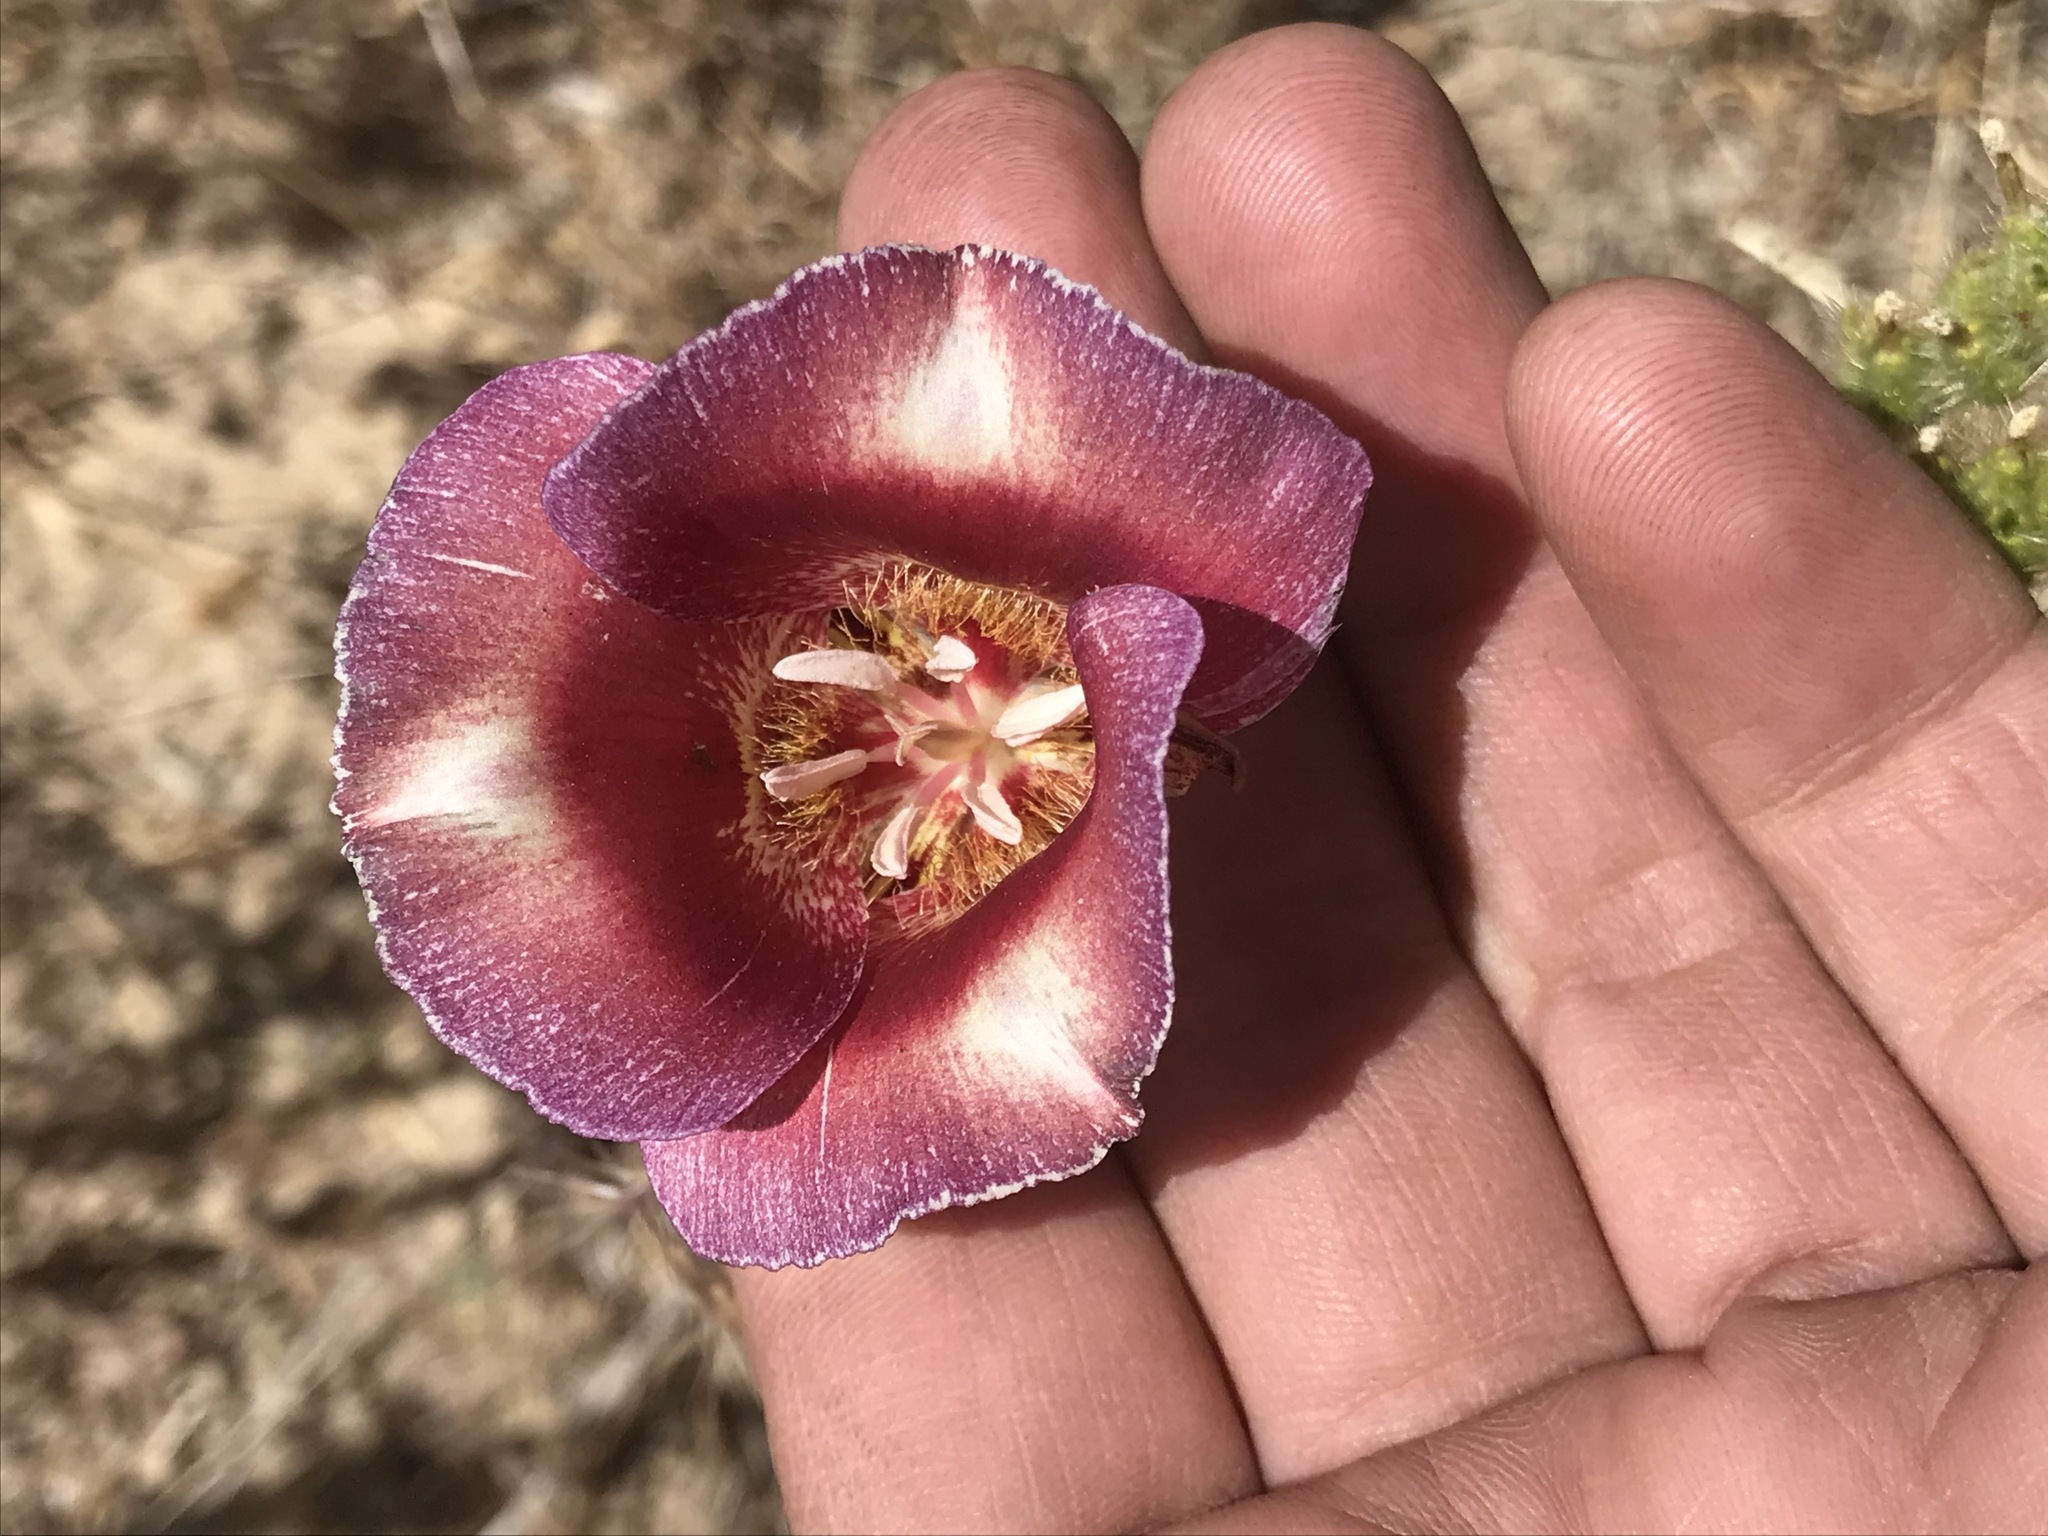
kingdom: Plantae
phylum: Tracheophyta
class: Liliopsida
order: Liliales
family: Liliaceae
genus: Calochortus
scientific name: Calochortus venustus
